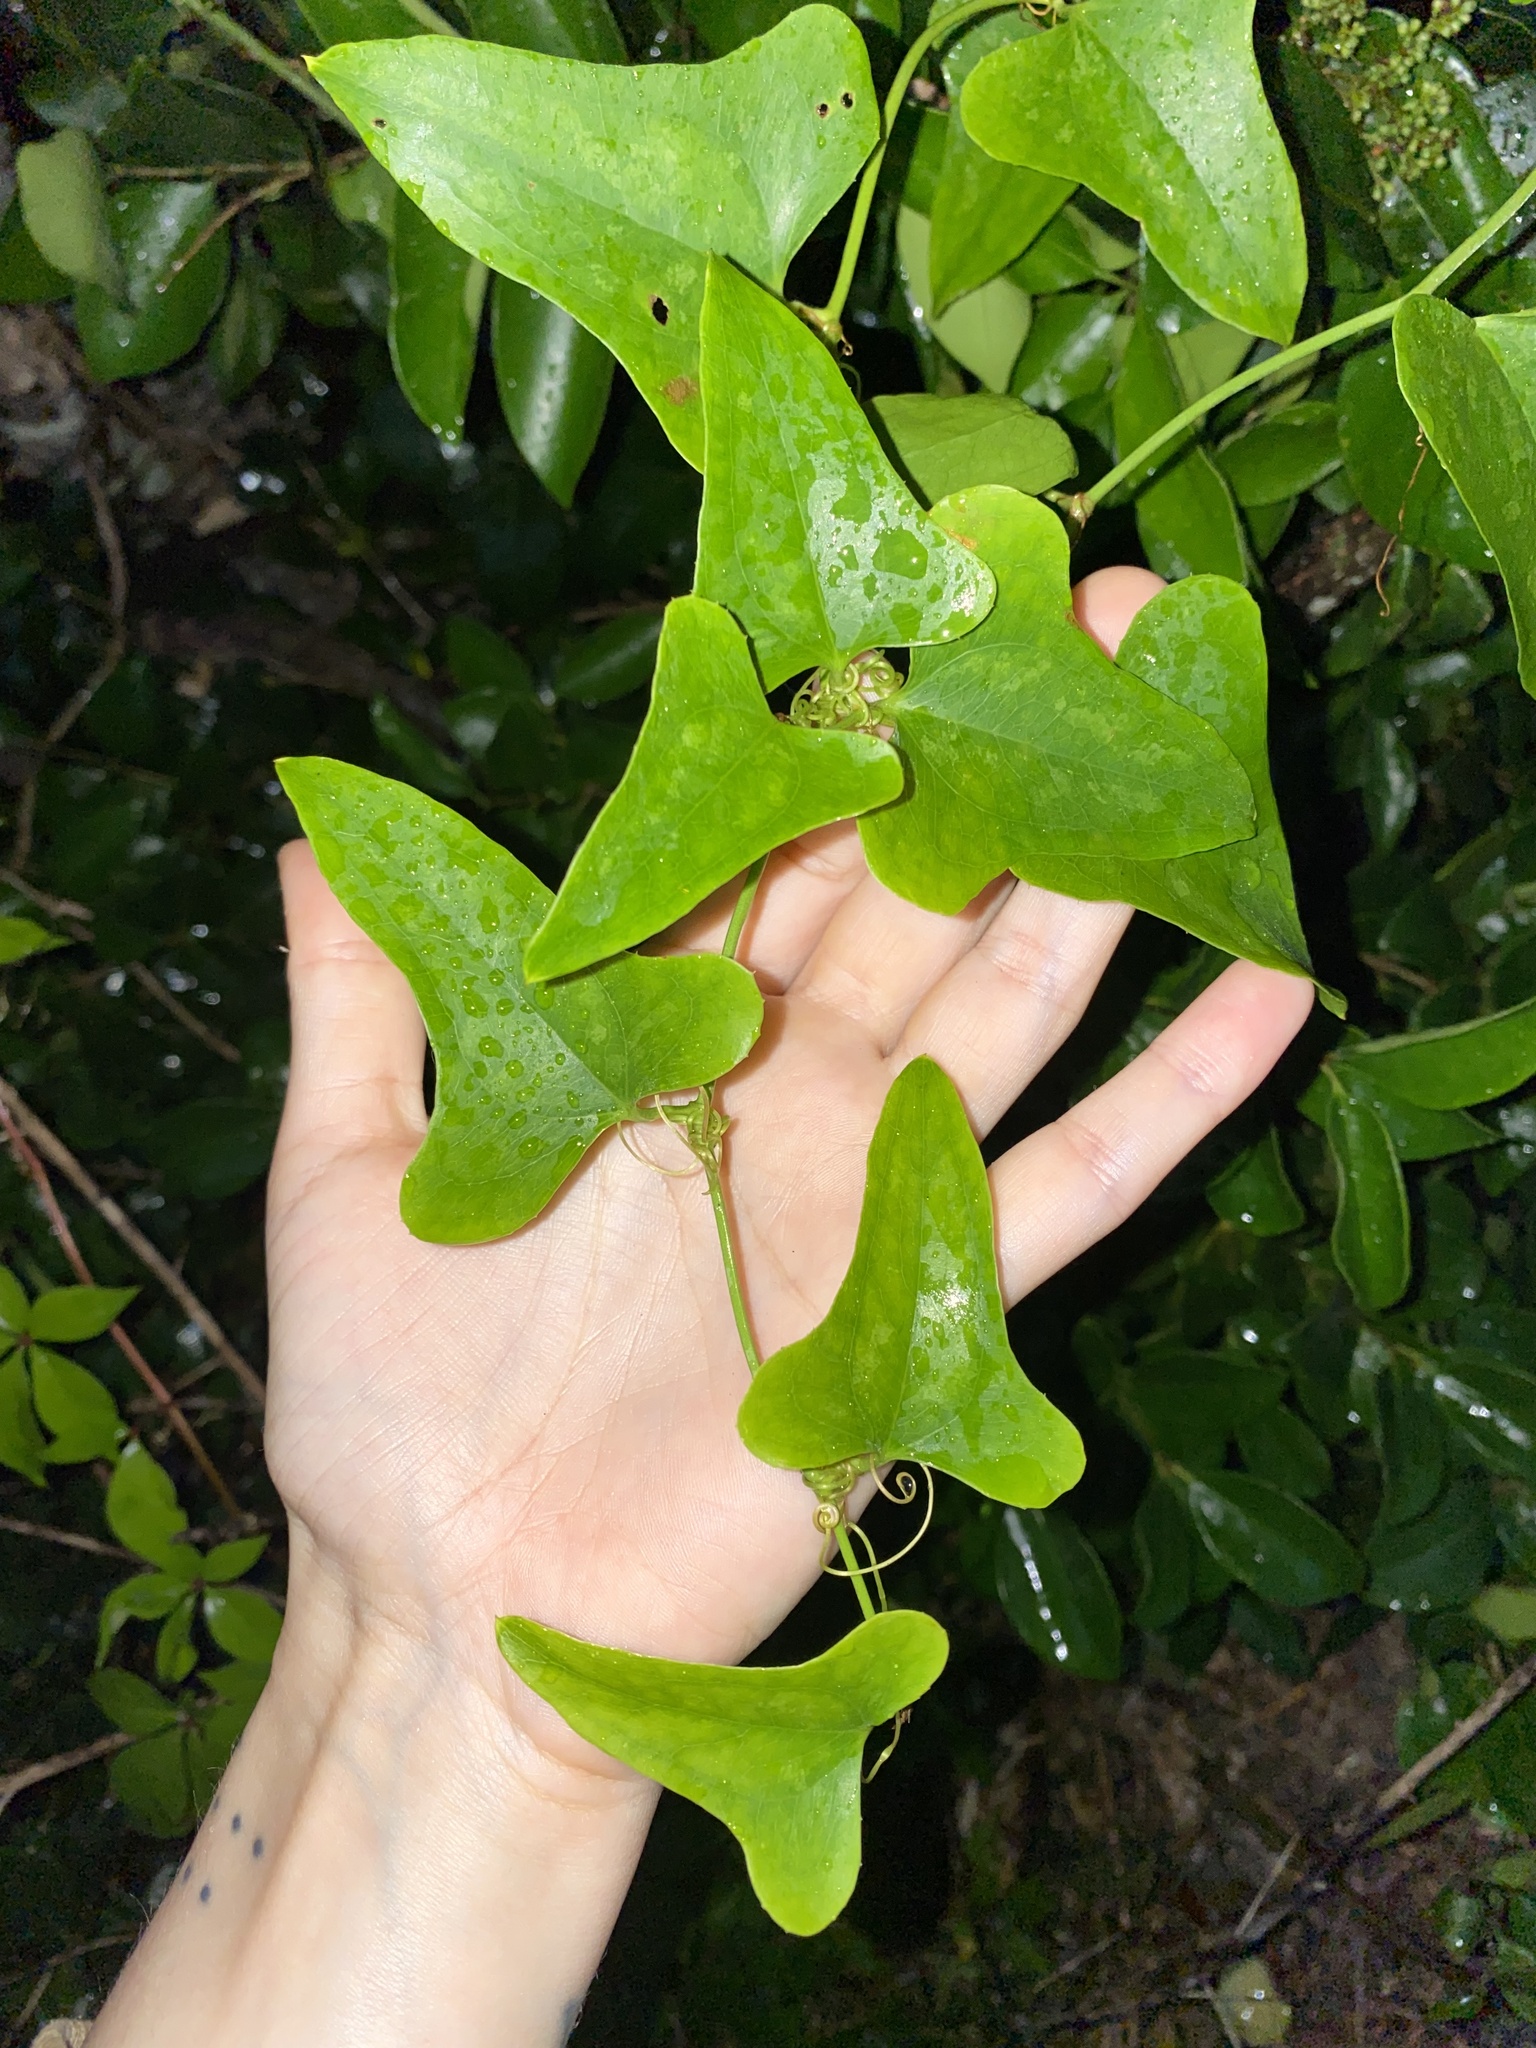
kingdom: Plantae
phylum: Tracheophyta
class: Liliopsida
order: Liliales
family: Smilacaceae
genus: Smilax
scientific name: Smilax bona-nox
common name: Catbrier
